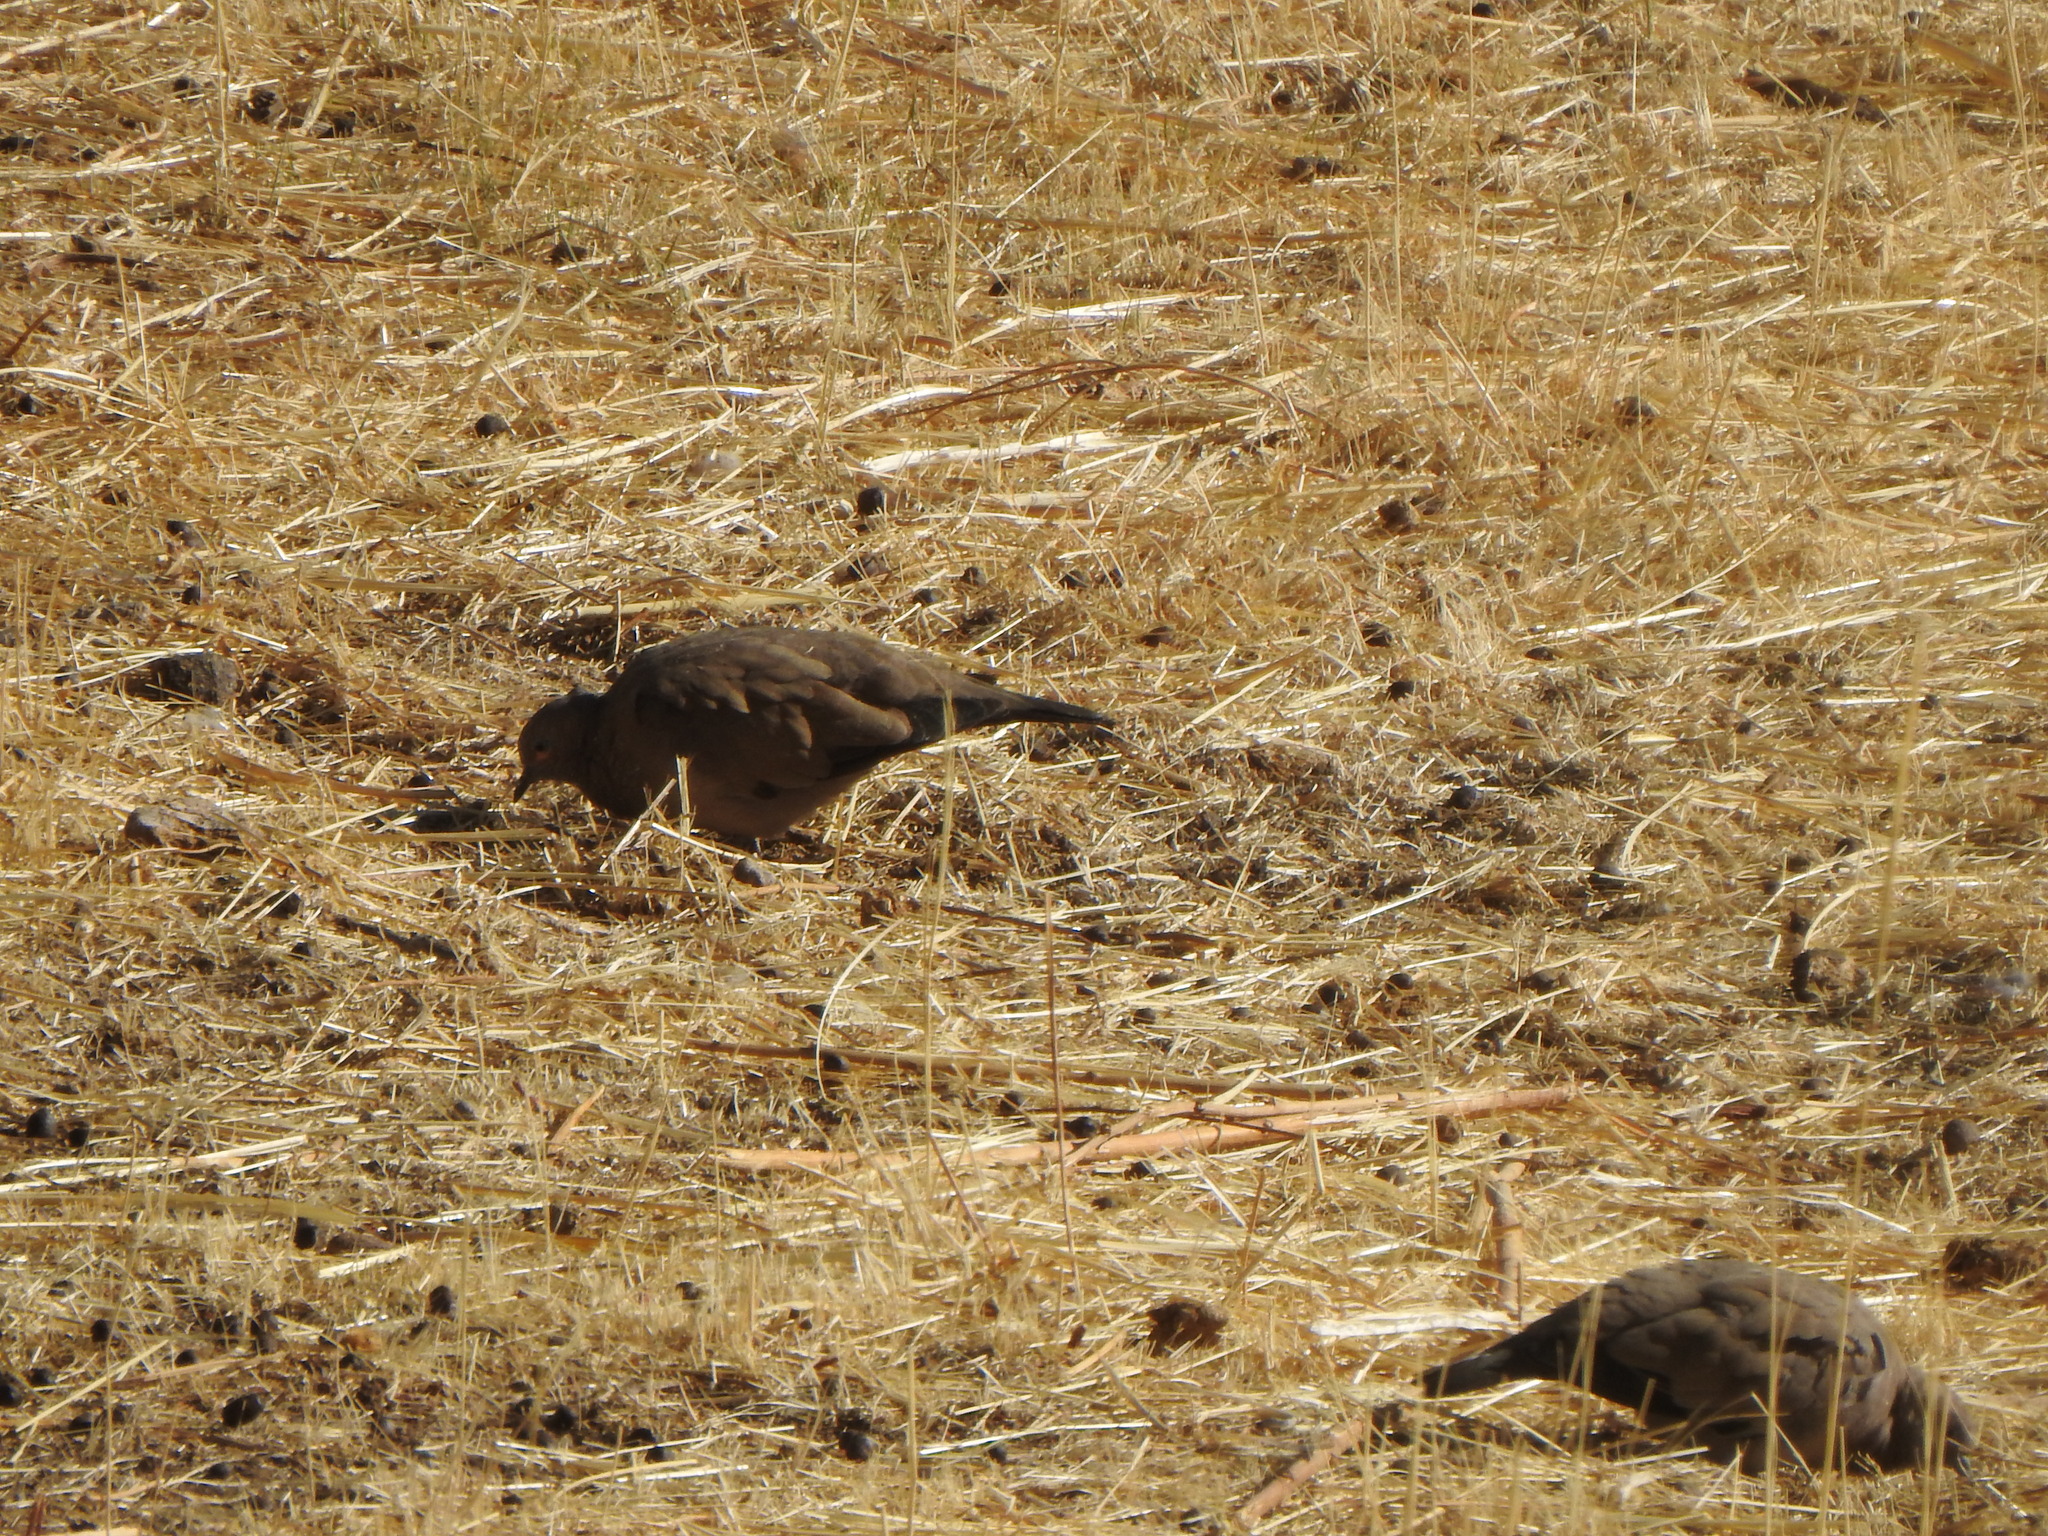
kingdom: Animalia
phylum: Chordata
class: Aves
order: Columbiformes
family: Columbidae
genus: Metriopelia
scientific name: Metriopelia melanoptera
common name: Black-winged ground dove
